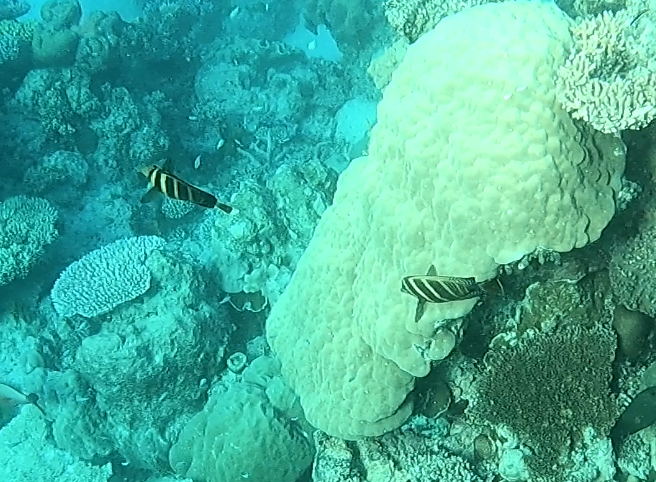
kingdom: Animalia
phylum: Chordata
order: Perciformes
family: Acanthuridae
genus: Zebrasoma
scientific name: Zebrasoma veliferum
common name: Sailfin surgeonfish
